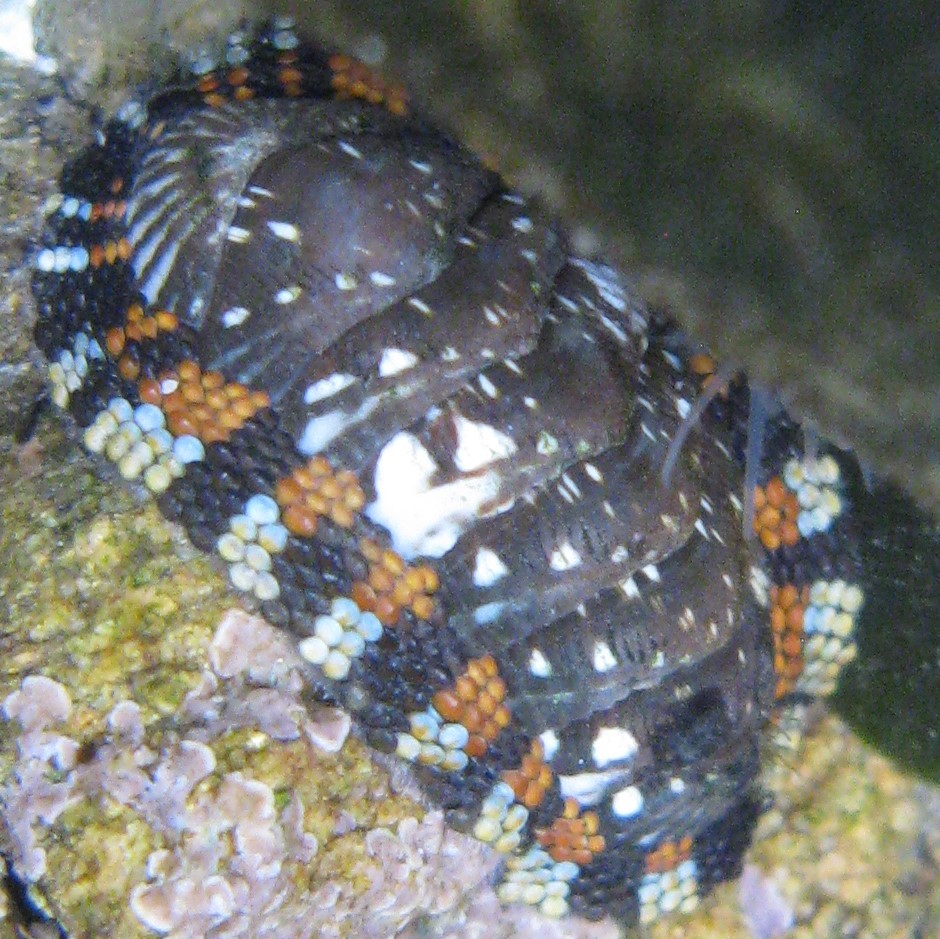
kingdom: Animalia
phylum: Mollusca
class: Polyplacophora
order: Chitonida
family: Chitonidae
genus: Sypharochiton
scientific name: Sypharochiton sinclairi
